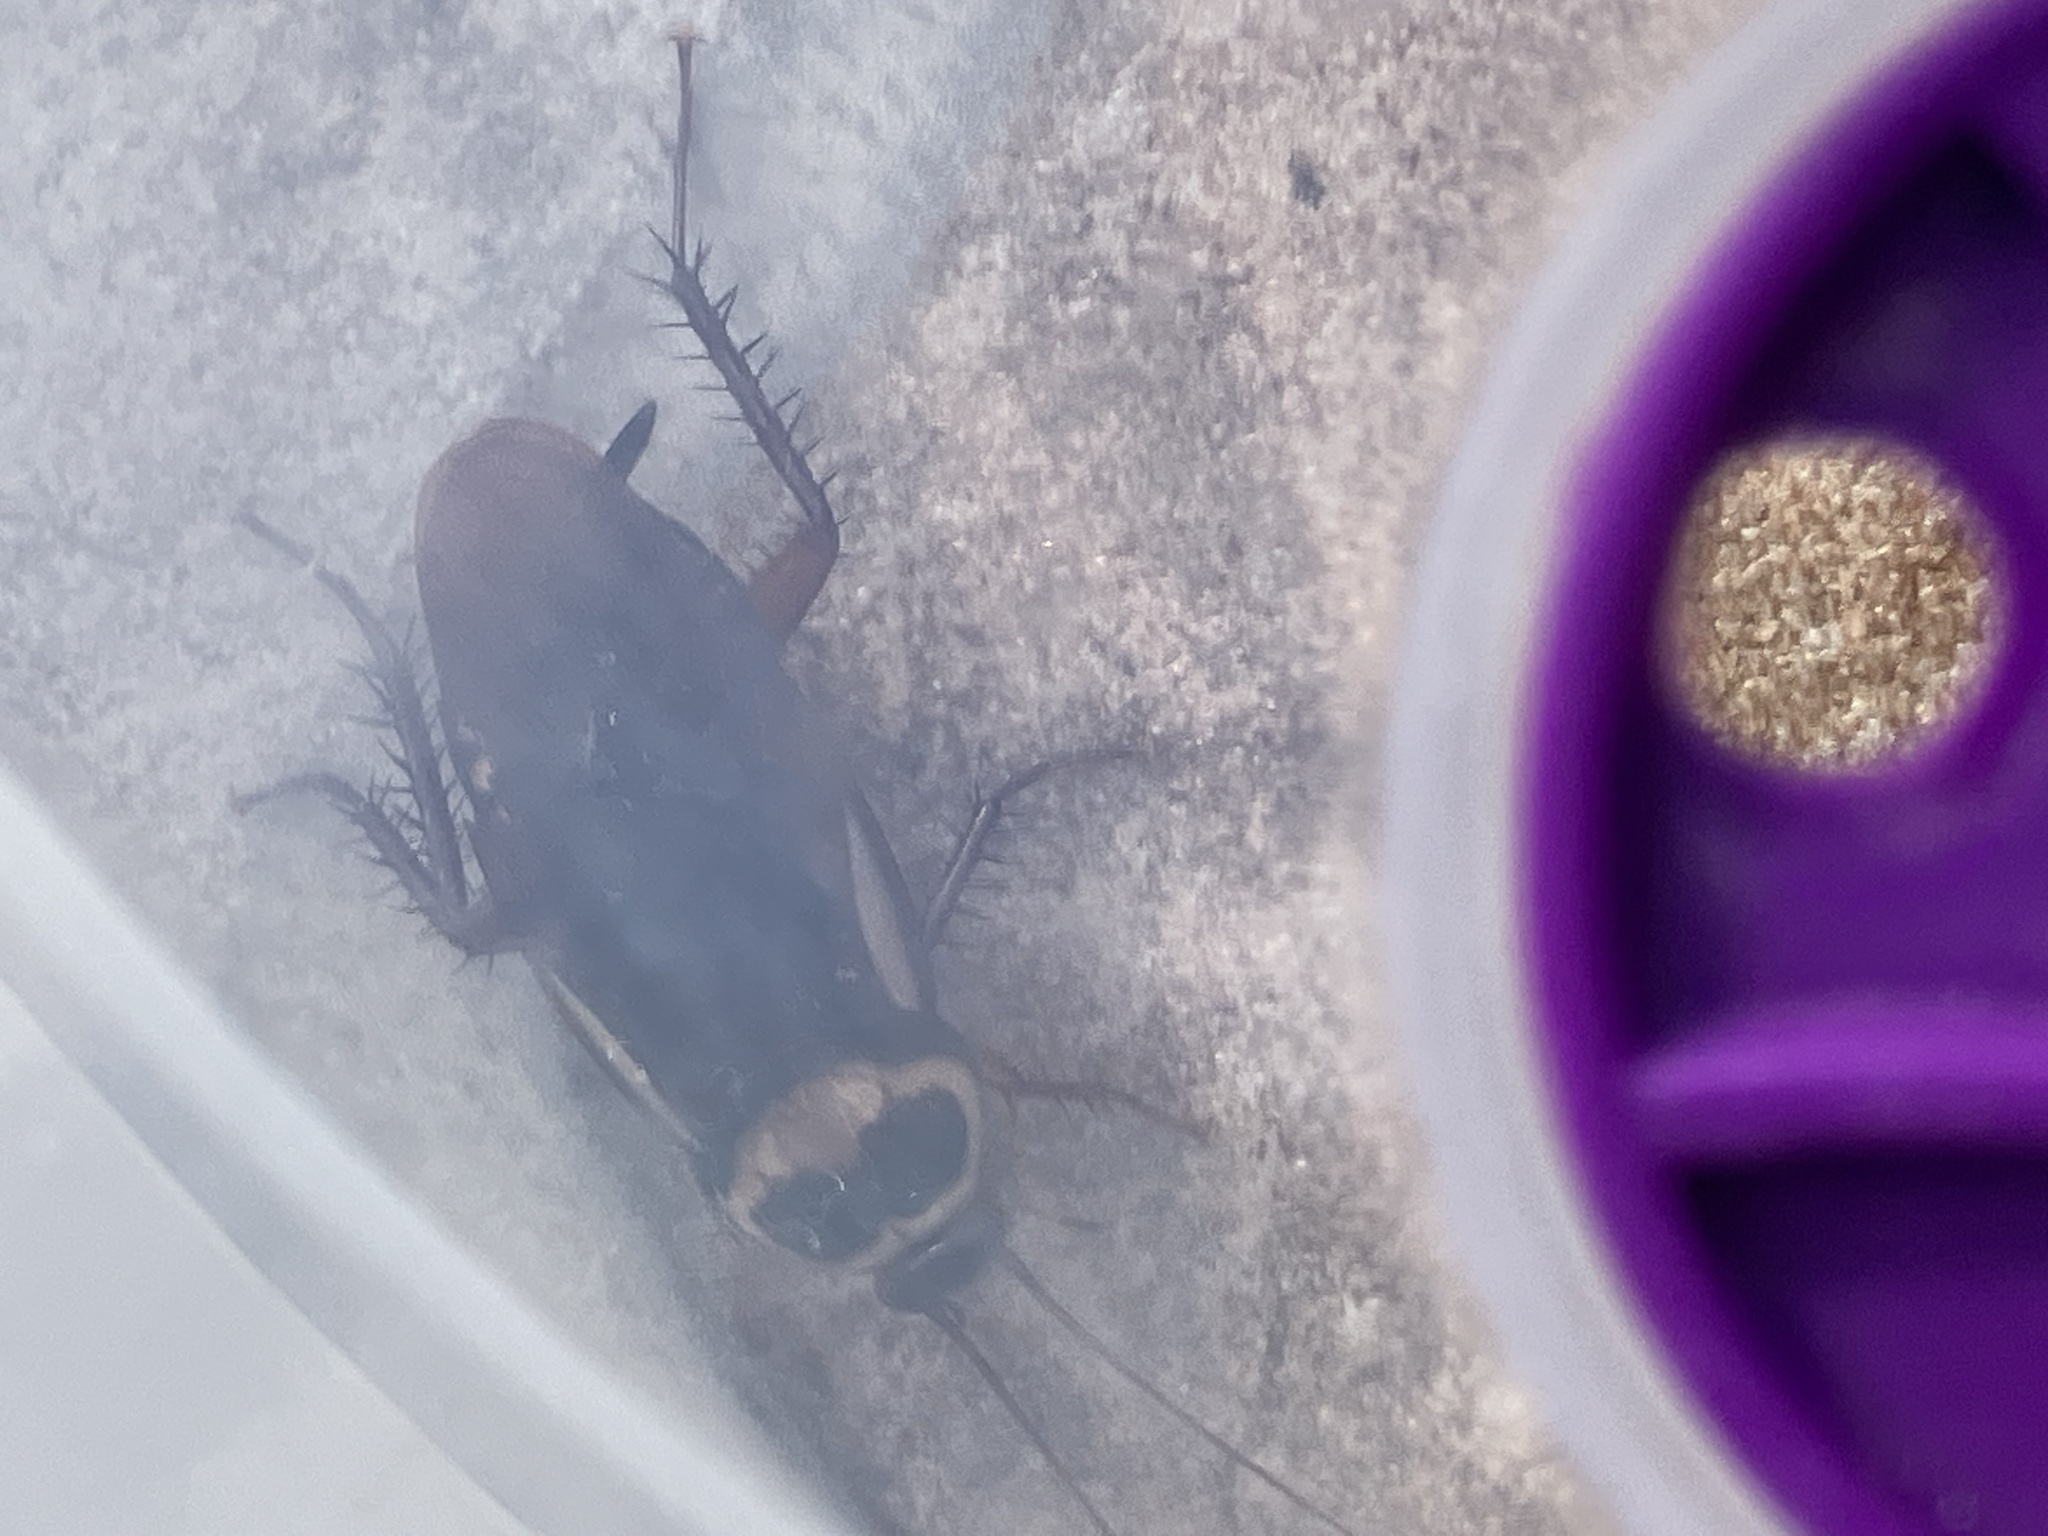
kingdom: Animalia
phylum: Arthropoda
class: Insecta
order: Blattodea
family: Blattidae
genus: Periplaneta
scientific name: Periplaneta australasiae
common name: Australian cockroach
